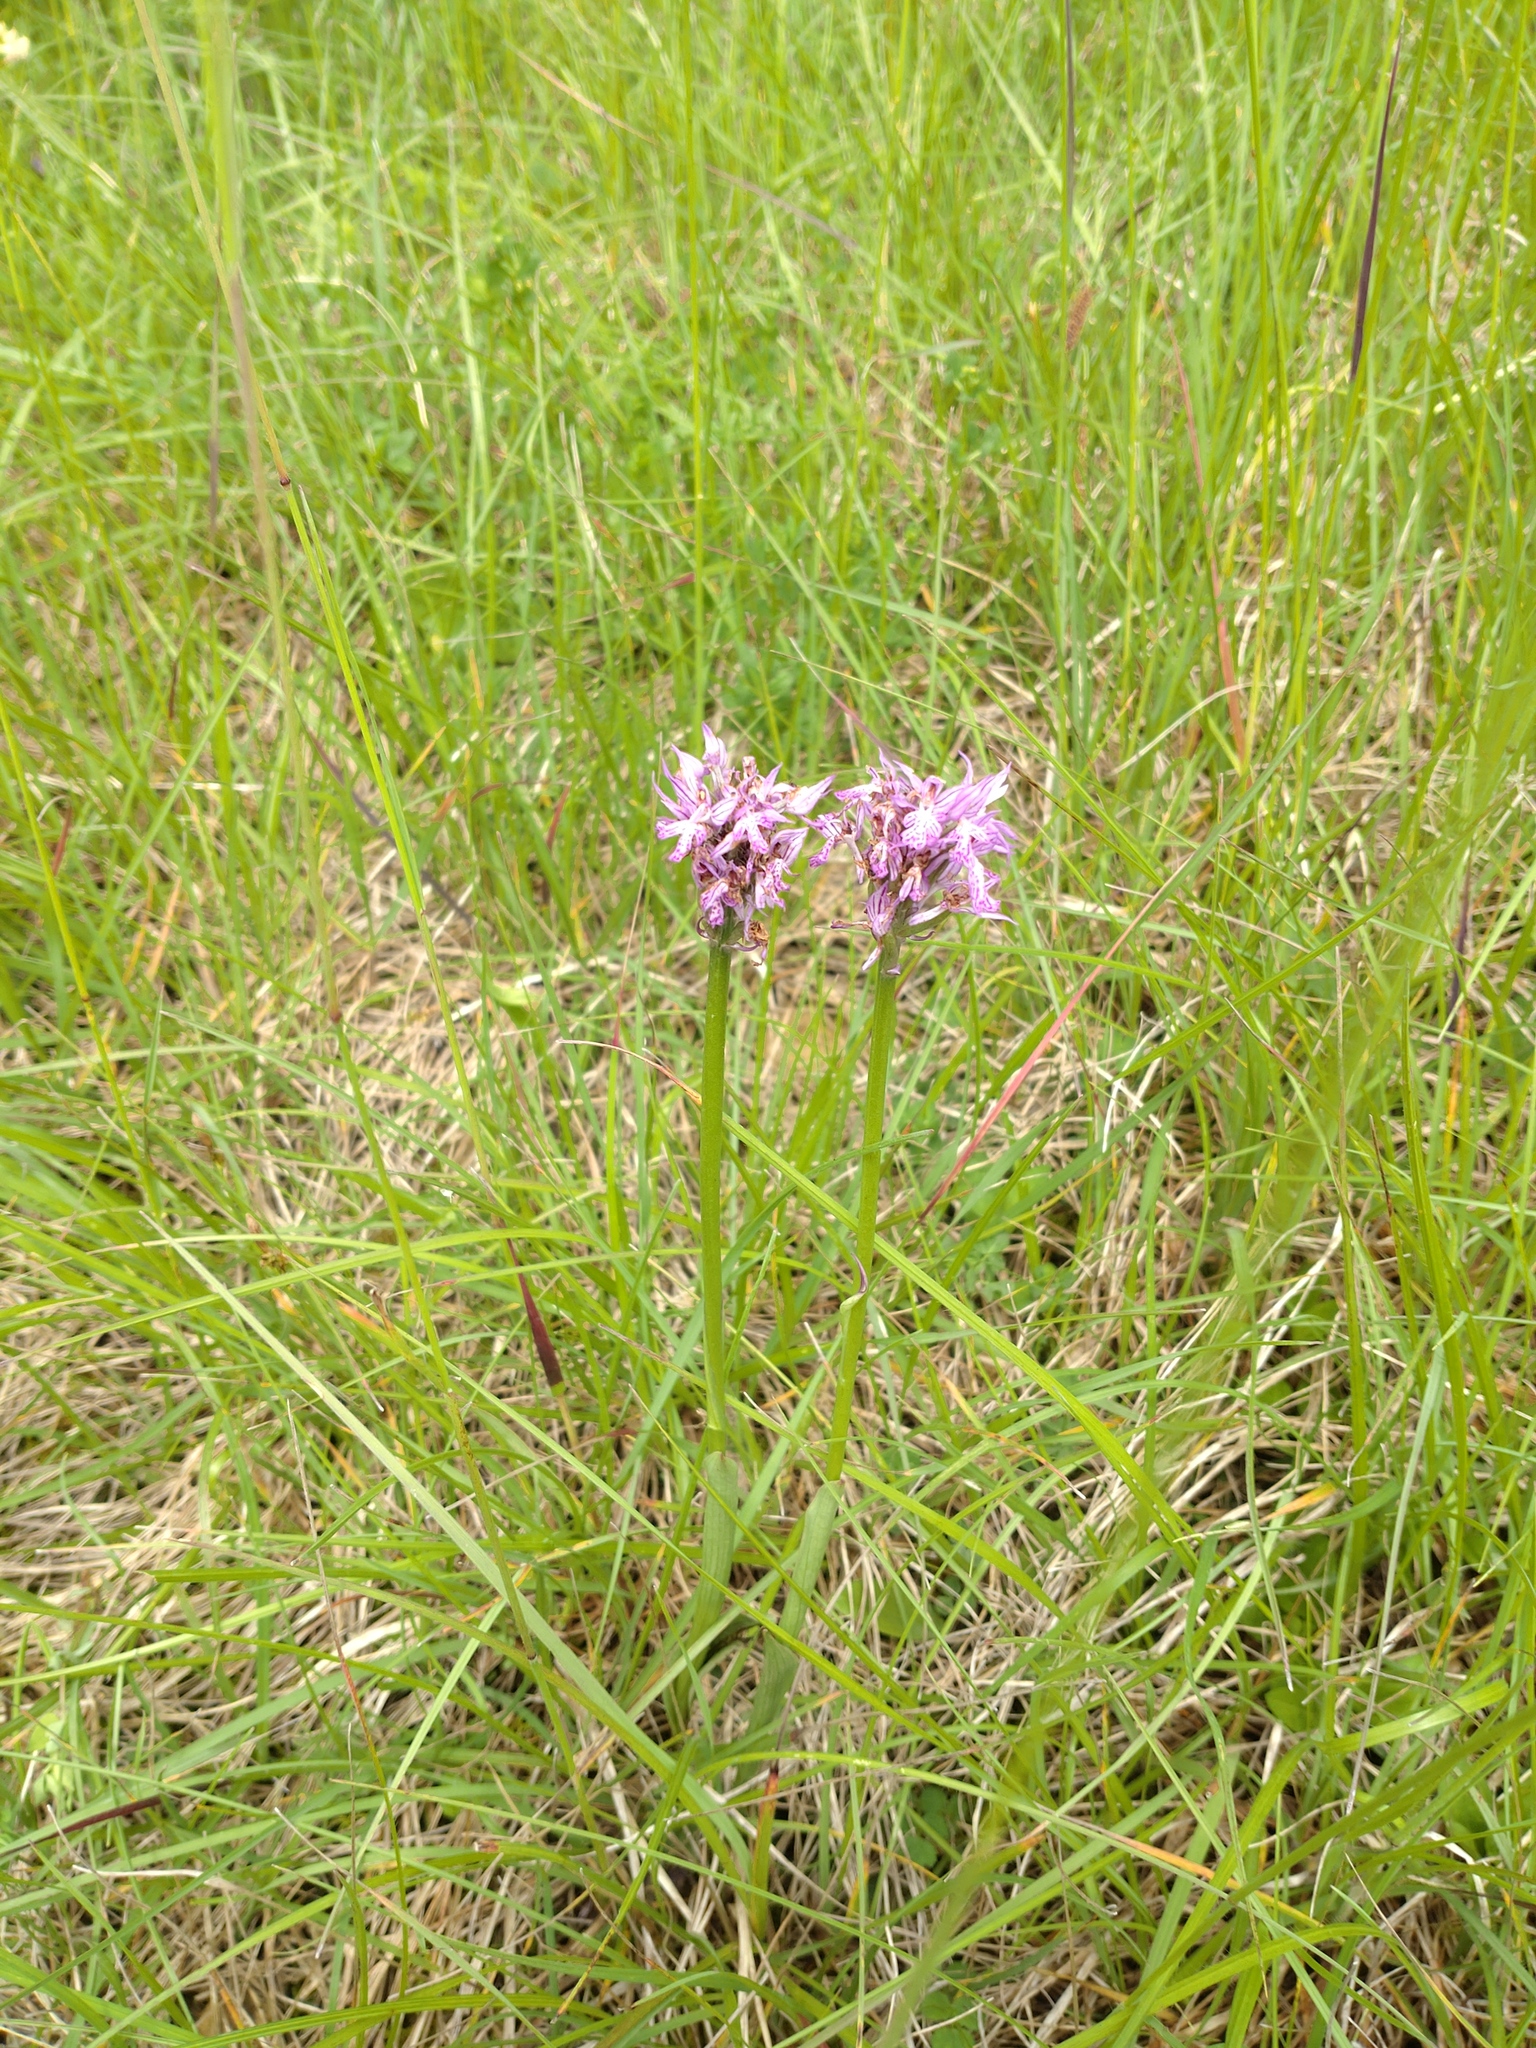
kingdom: Plantae
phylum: Tracheophyta
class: Liliopsida
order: Asparagales
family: Orchidaceae
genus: Neotinea
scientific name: Neotinea tridentata
